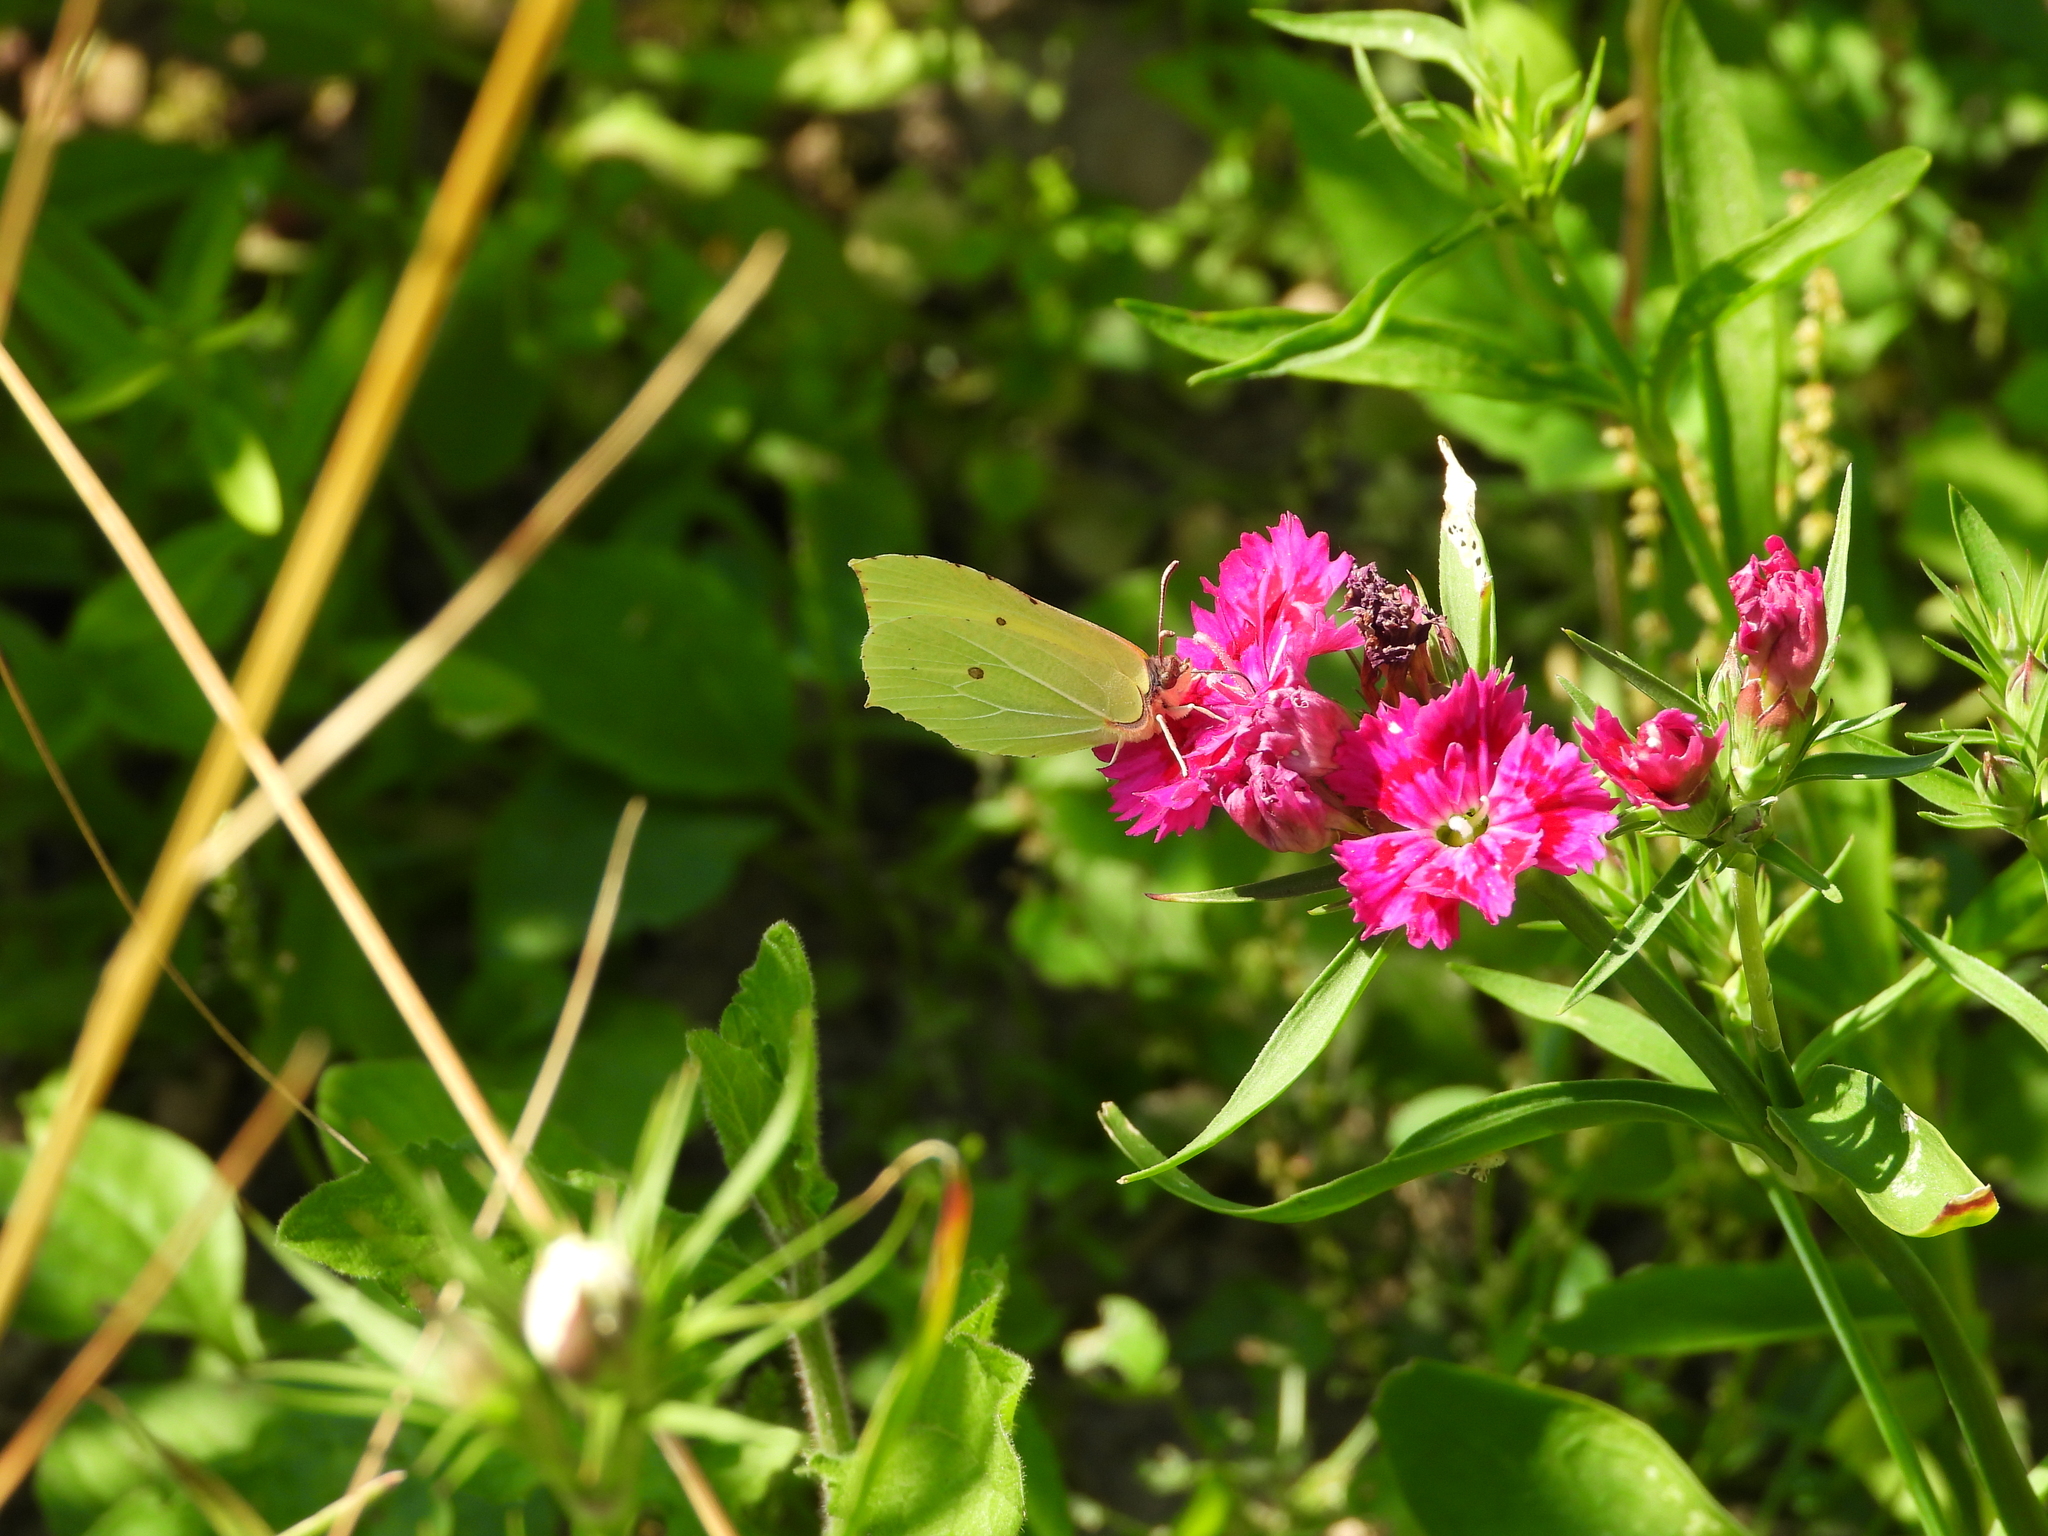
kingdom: Animalia
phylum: Arthropoda
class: Insecta
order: Lepidoptera
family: Pieridae
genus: Gonepteryx
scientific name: Gonepteryx rhamni
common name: Brimstone
